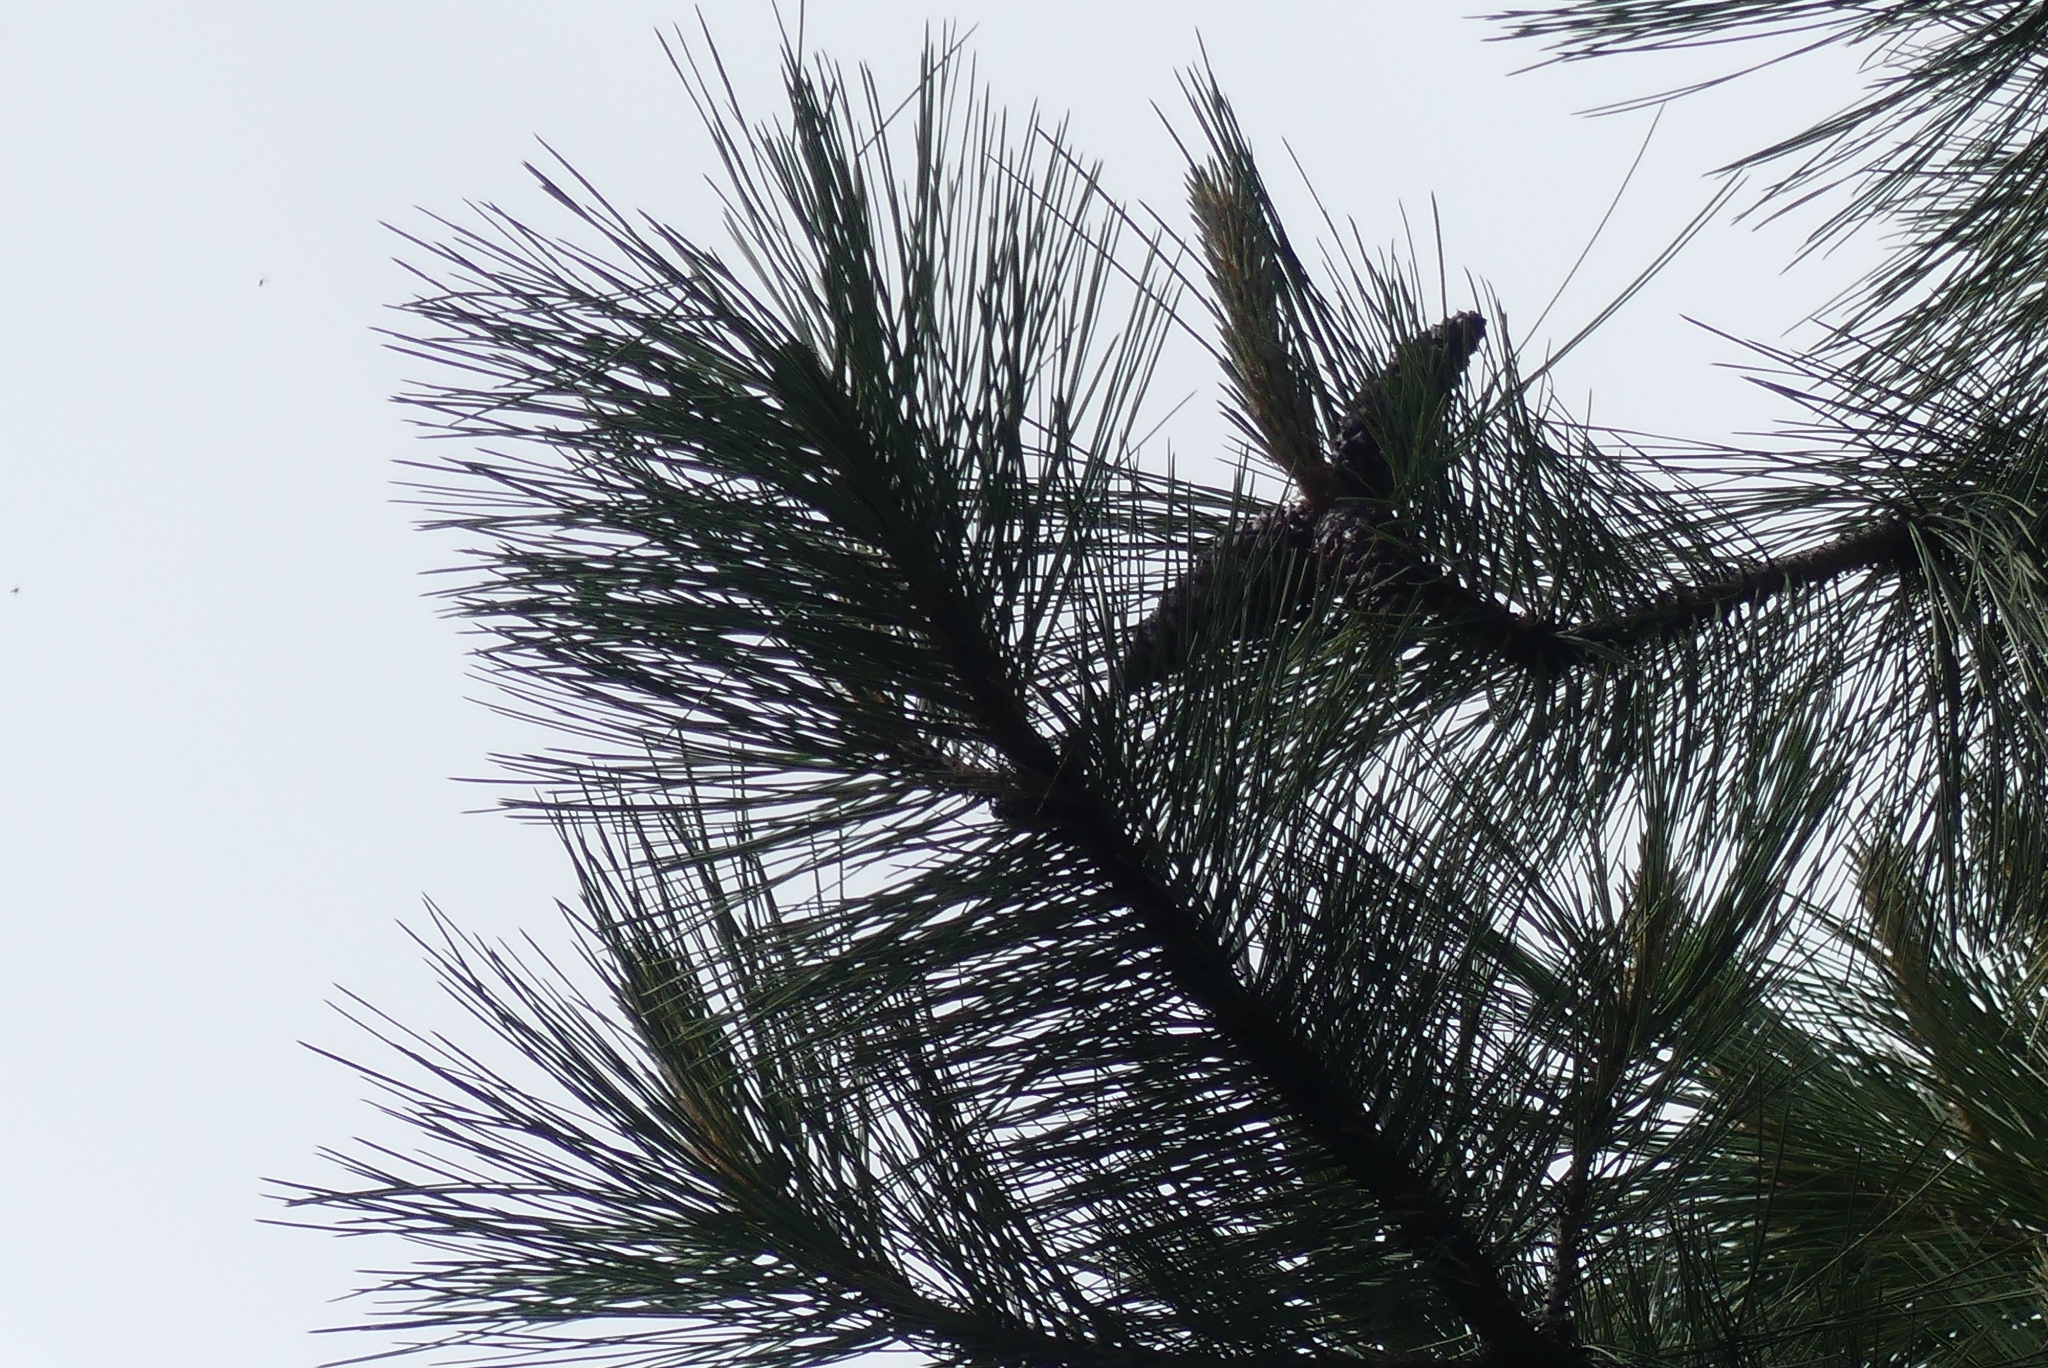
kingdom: Plantae
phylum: Tracheophyta
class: Pinopsida
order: Pinales
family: Pinaceae
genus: Pinus
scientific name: Pinus ponderosa
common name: Western yellow-pine
